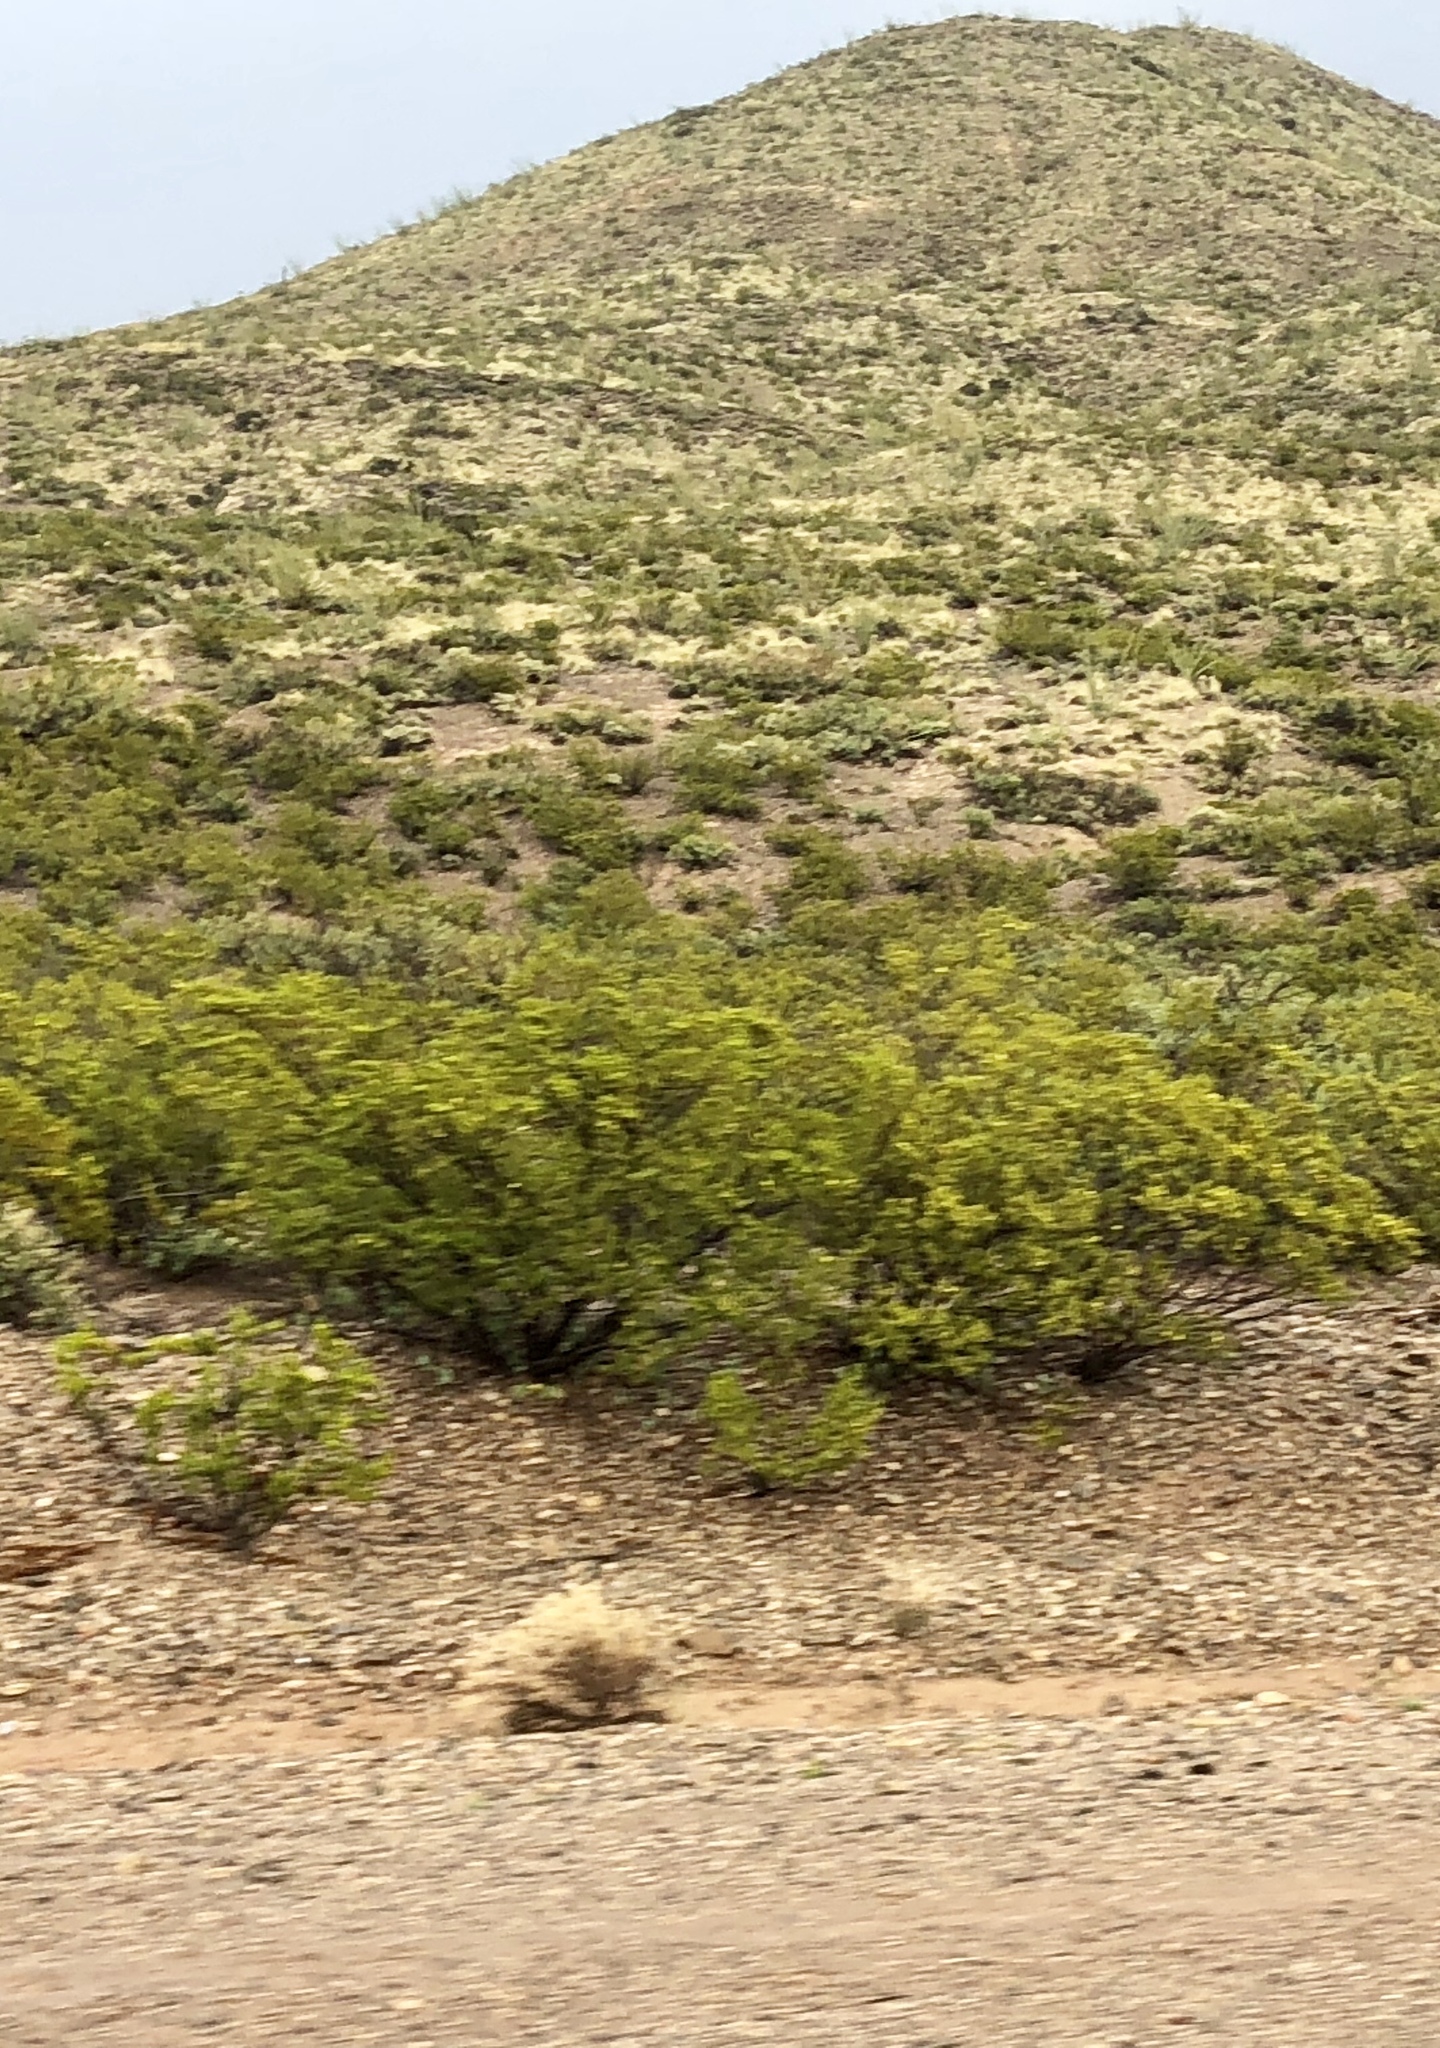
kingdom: Plantae
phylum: Tracheophyta
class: Magnoliopsida
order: Zygophyllales
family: Zygophyllaceae
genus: Larrea
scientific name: Larrea tridentata
